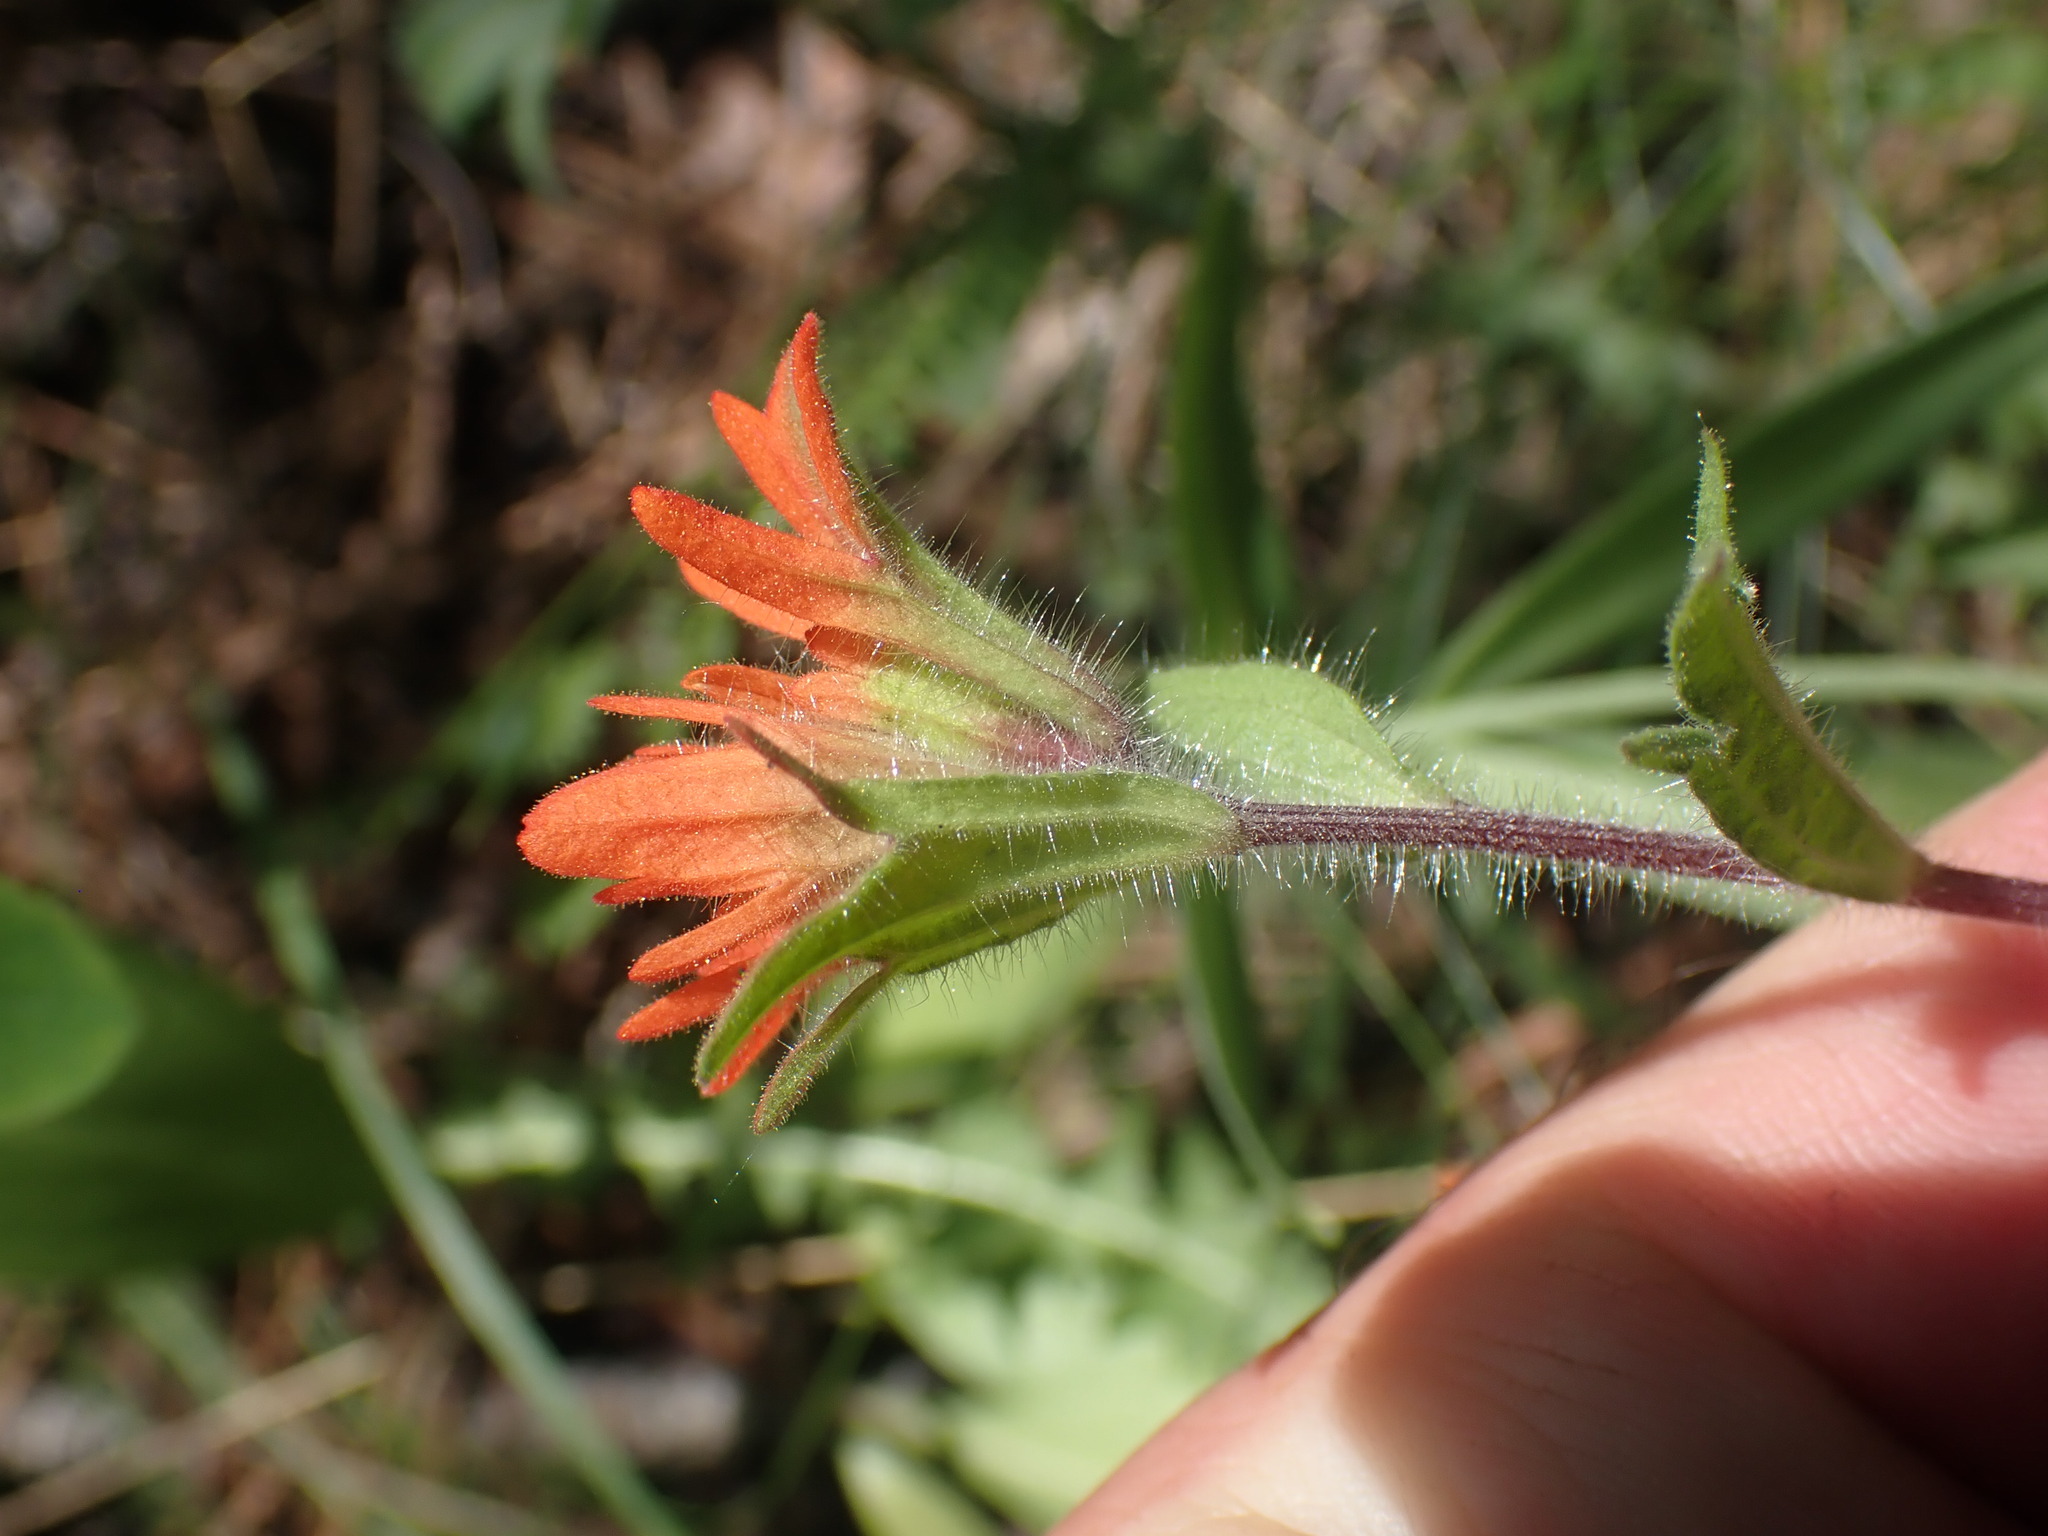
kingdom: Plantae
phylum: Tracheophyta
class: Magnoliopsida
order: Lamiales
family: Orobanchaceae
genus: Castilleja
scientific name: Castilleja hispida
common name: Bristly paintbrush
